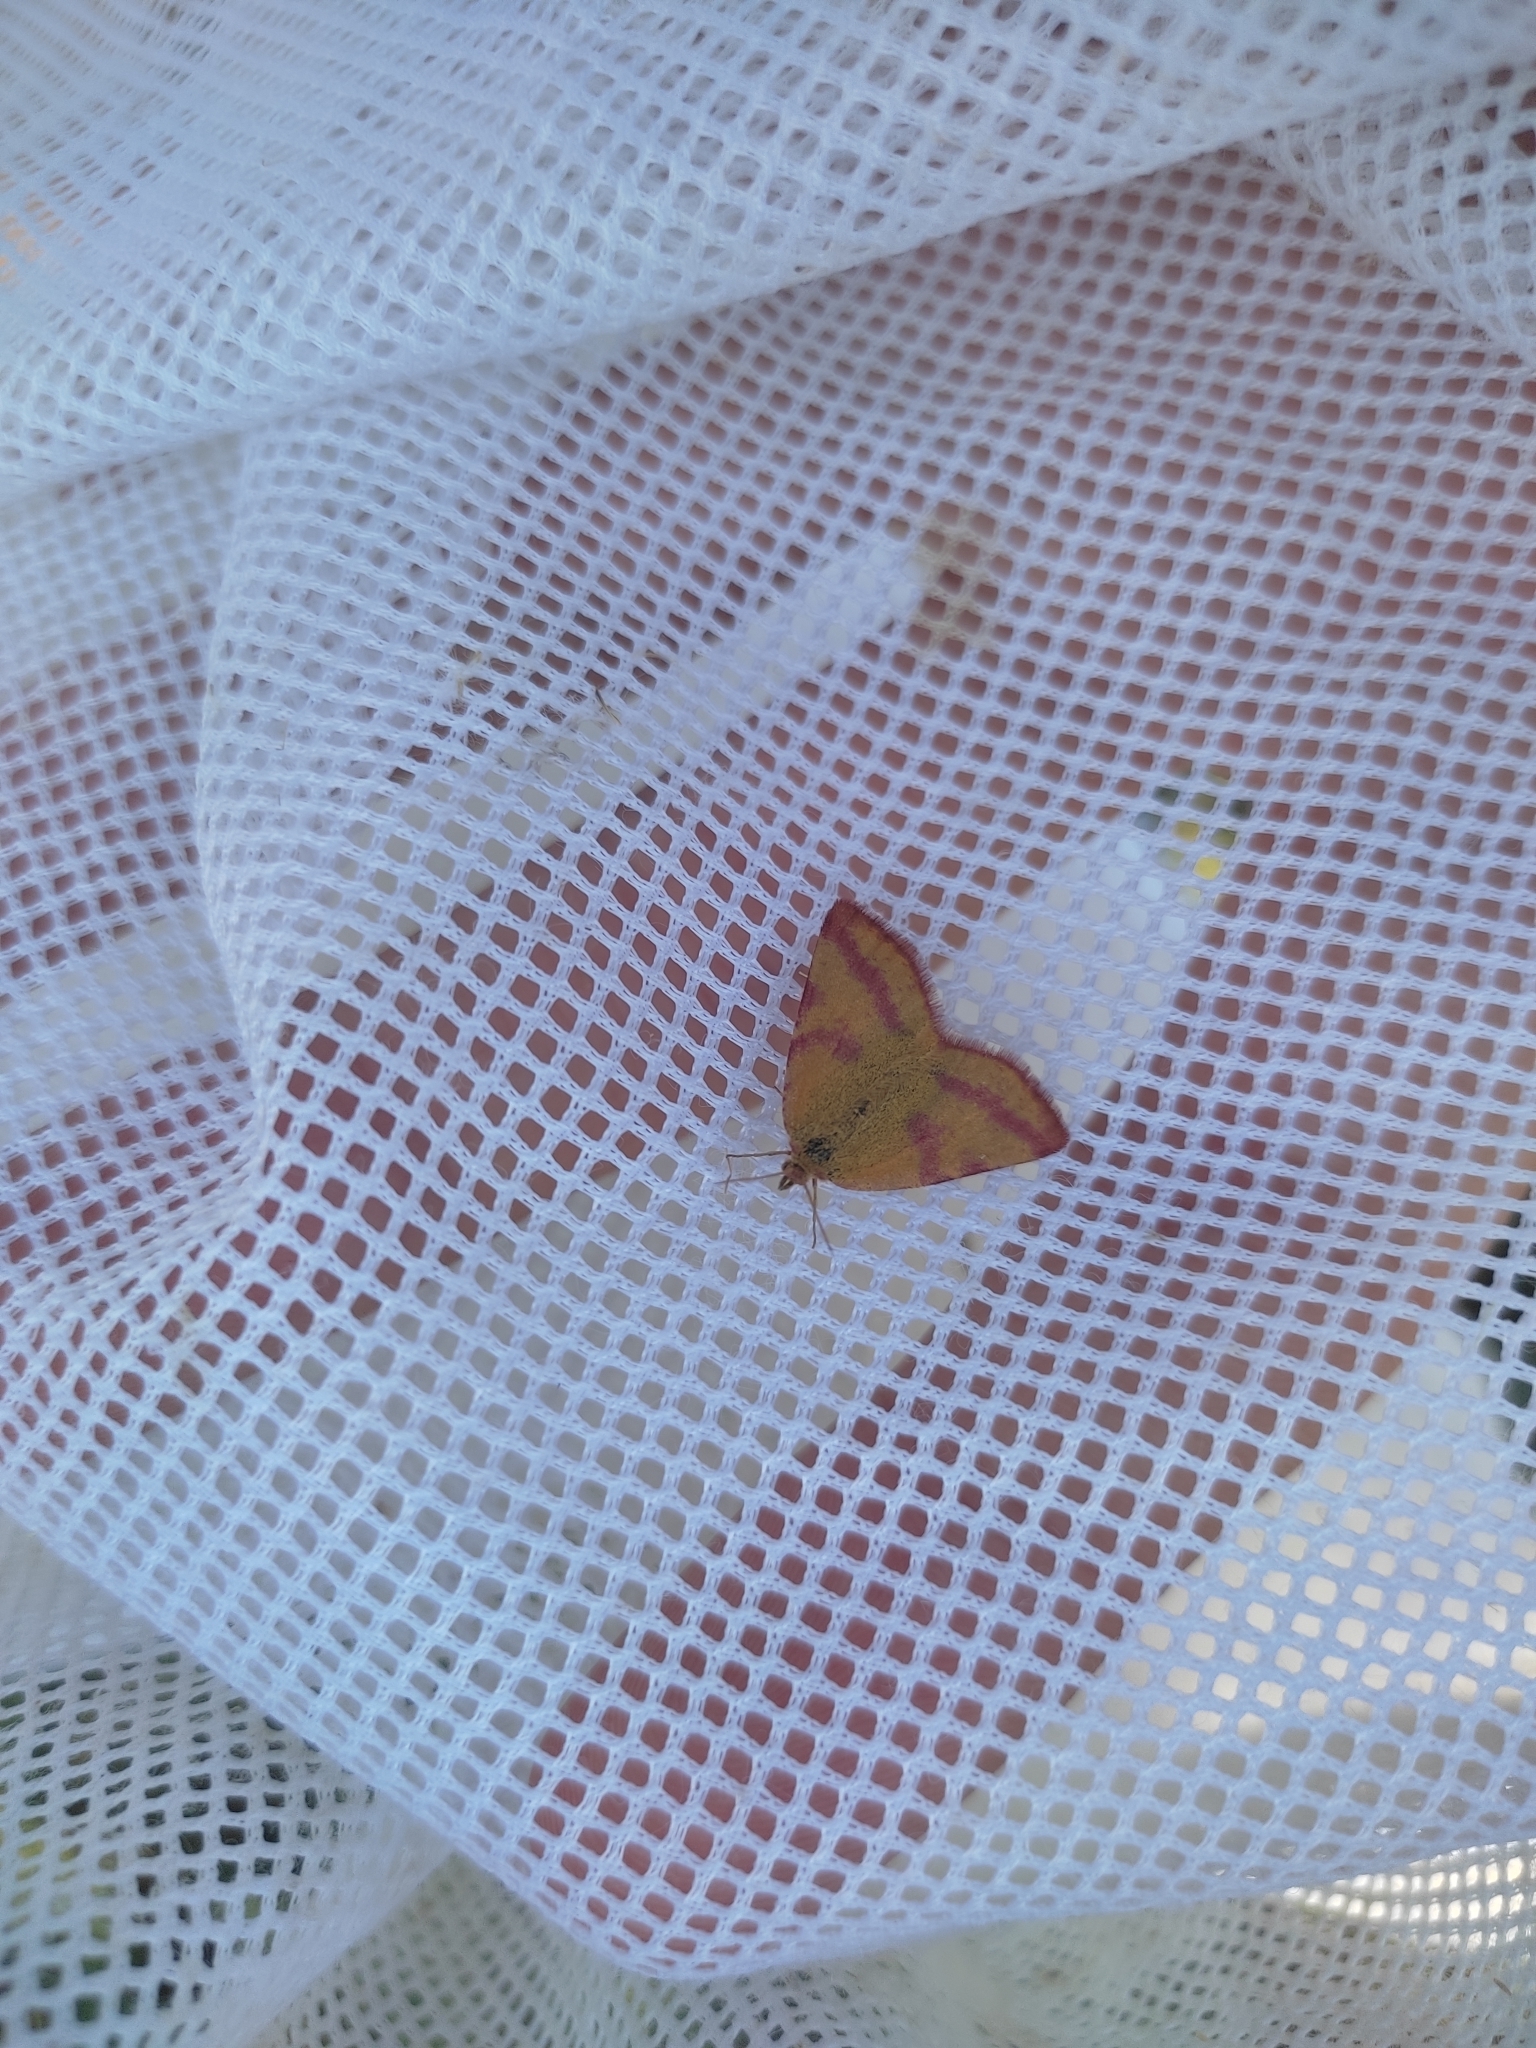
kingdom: Animalia
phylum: Arthropoda
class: Insecta
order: Lepidoptera
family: Geometridae
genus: Lythria
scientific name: Lythria purpuraria
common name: Purple-barred yellow
